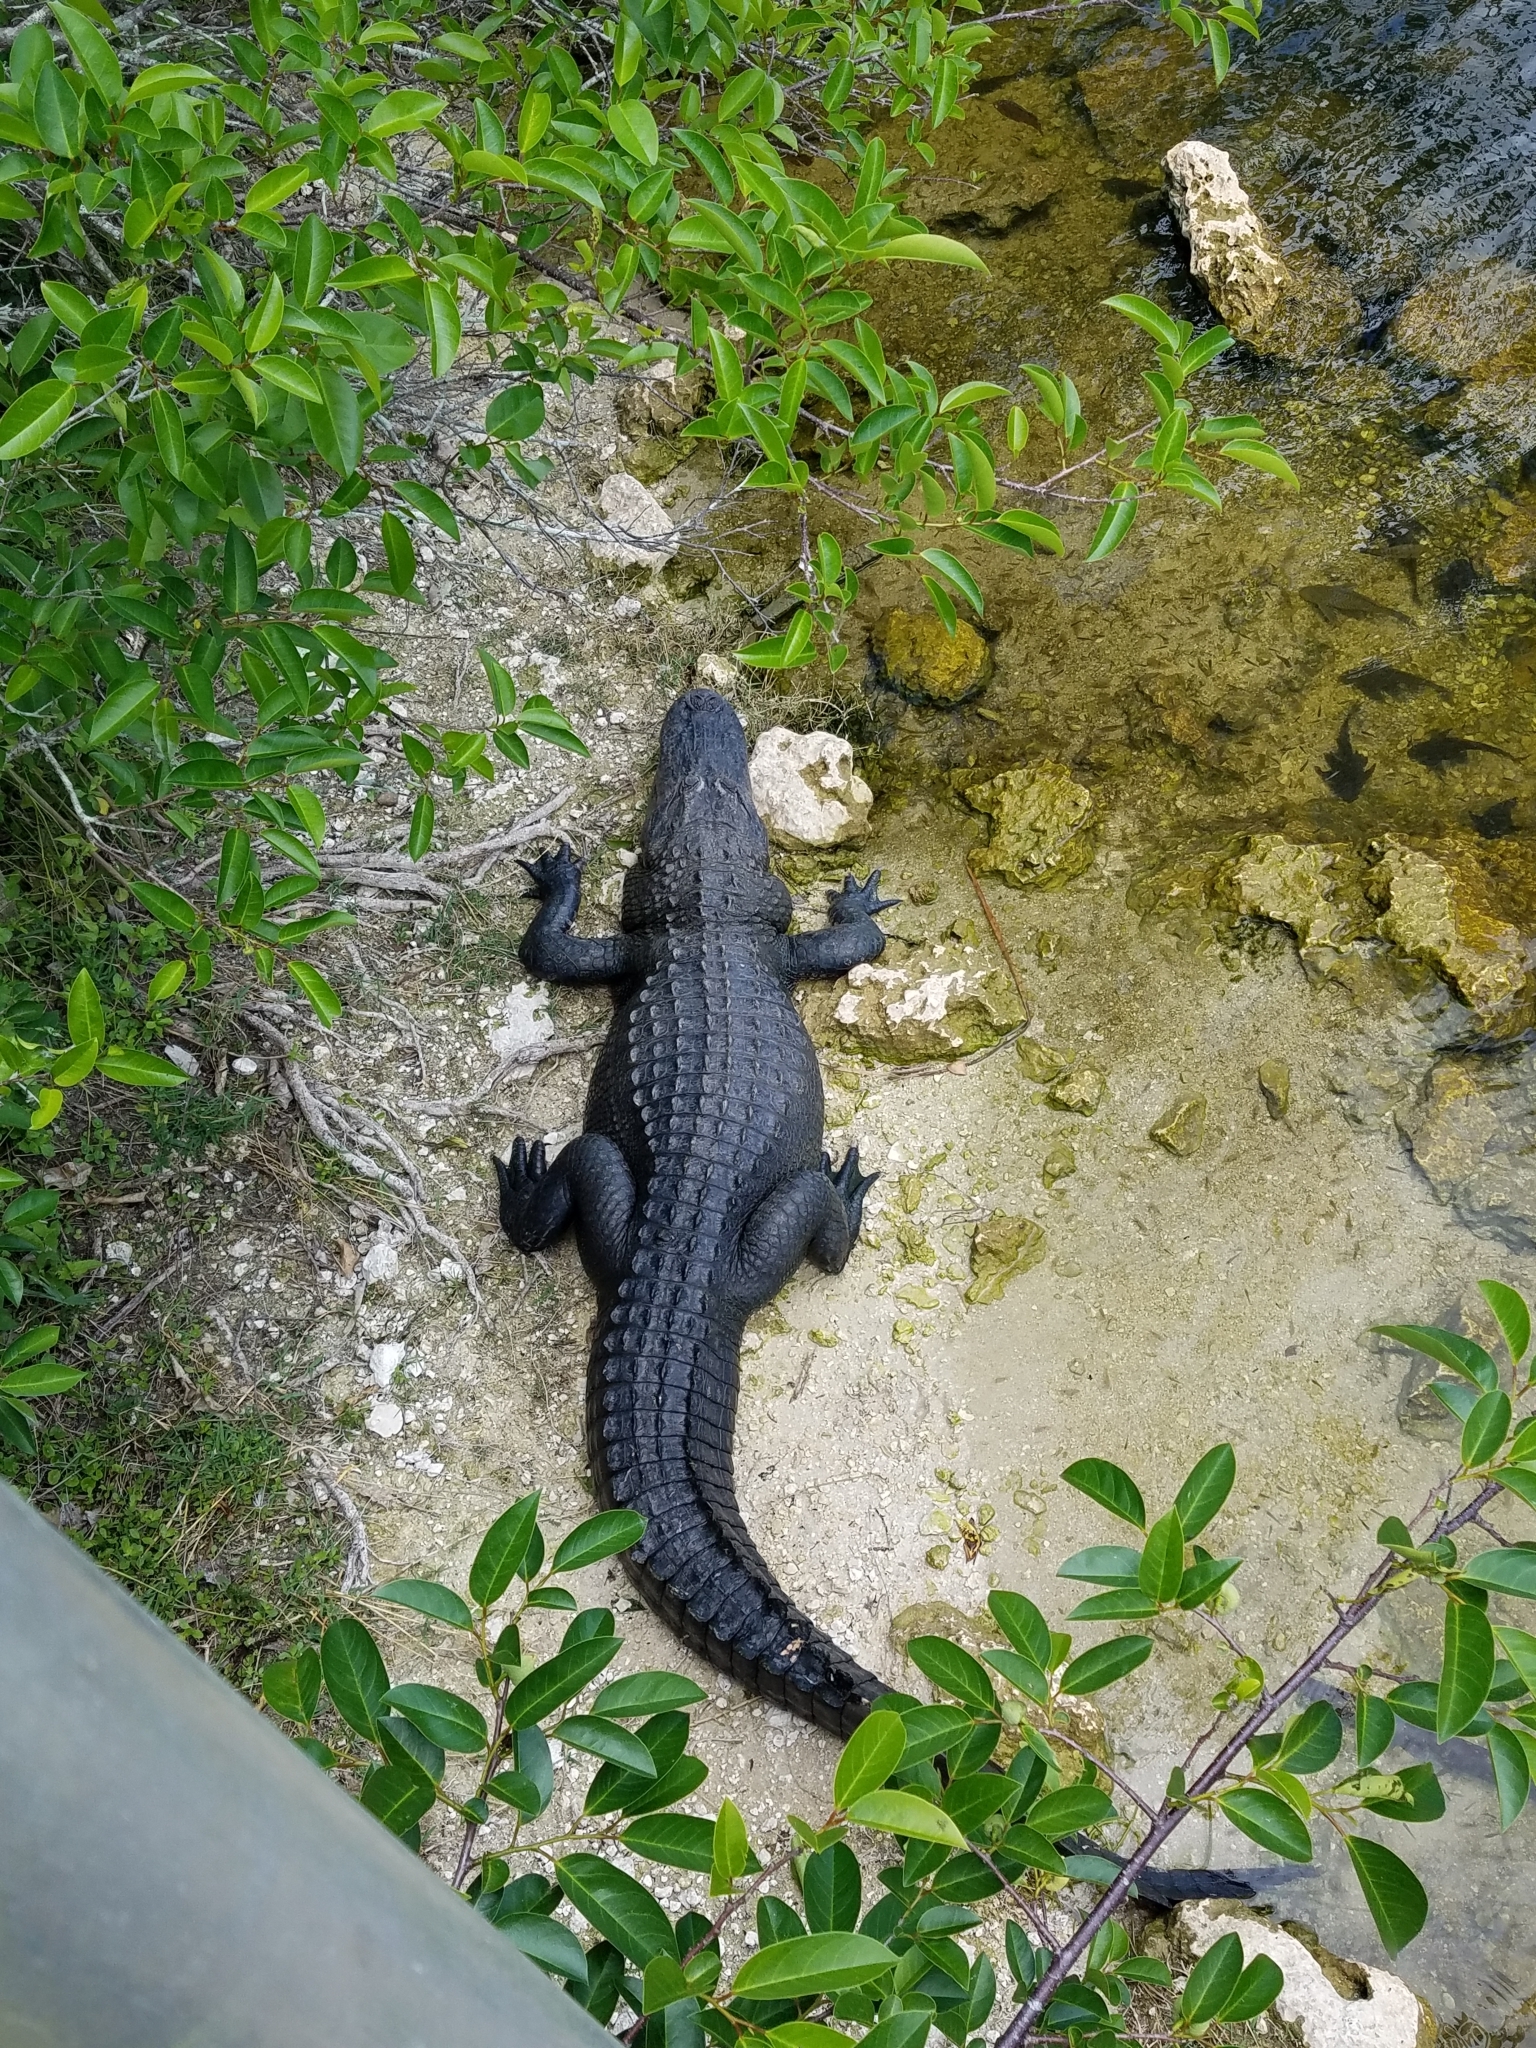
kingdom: Animalia
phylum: Chordata
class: Crocodylia
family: Alligatoridae
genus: Alligator
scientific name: Alligator mississippiensis
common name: American alligator
